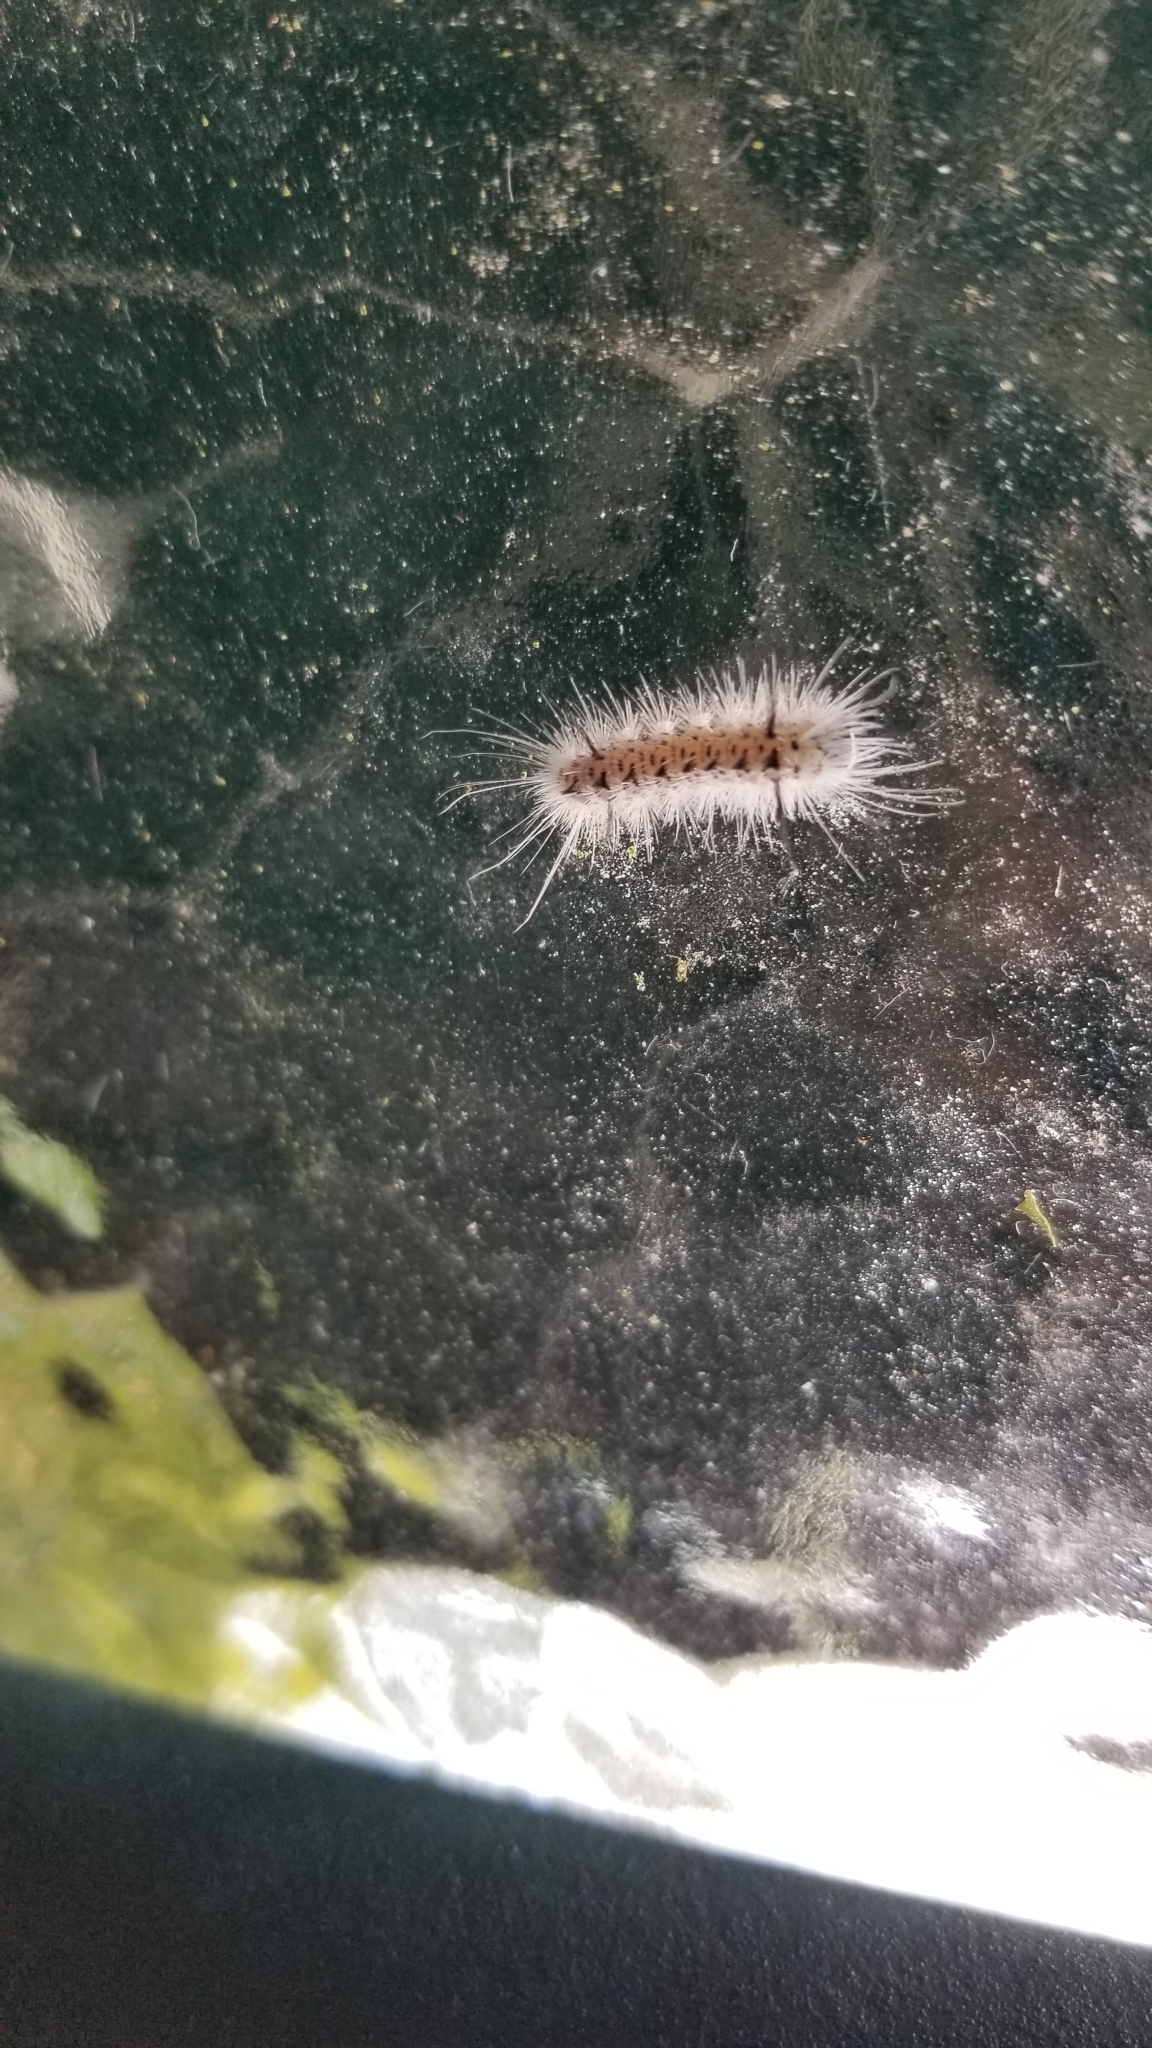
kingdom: Animalia
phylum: Arthropoda
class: Insecta
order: Lepidoptera
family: Erebidae
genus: Lophocampa
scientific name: Lophocampa caryae
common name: Hickory tussock moth
